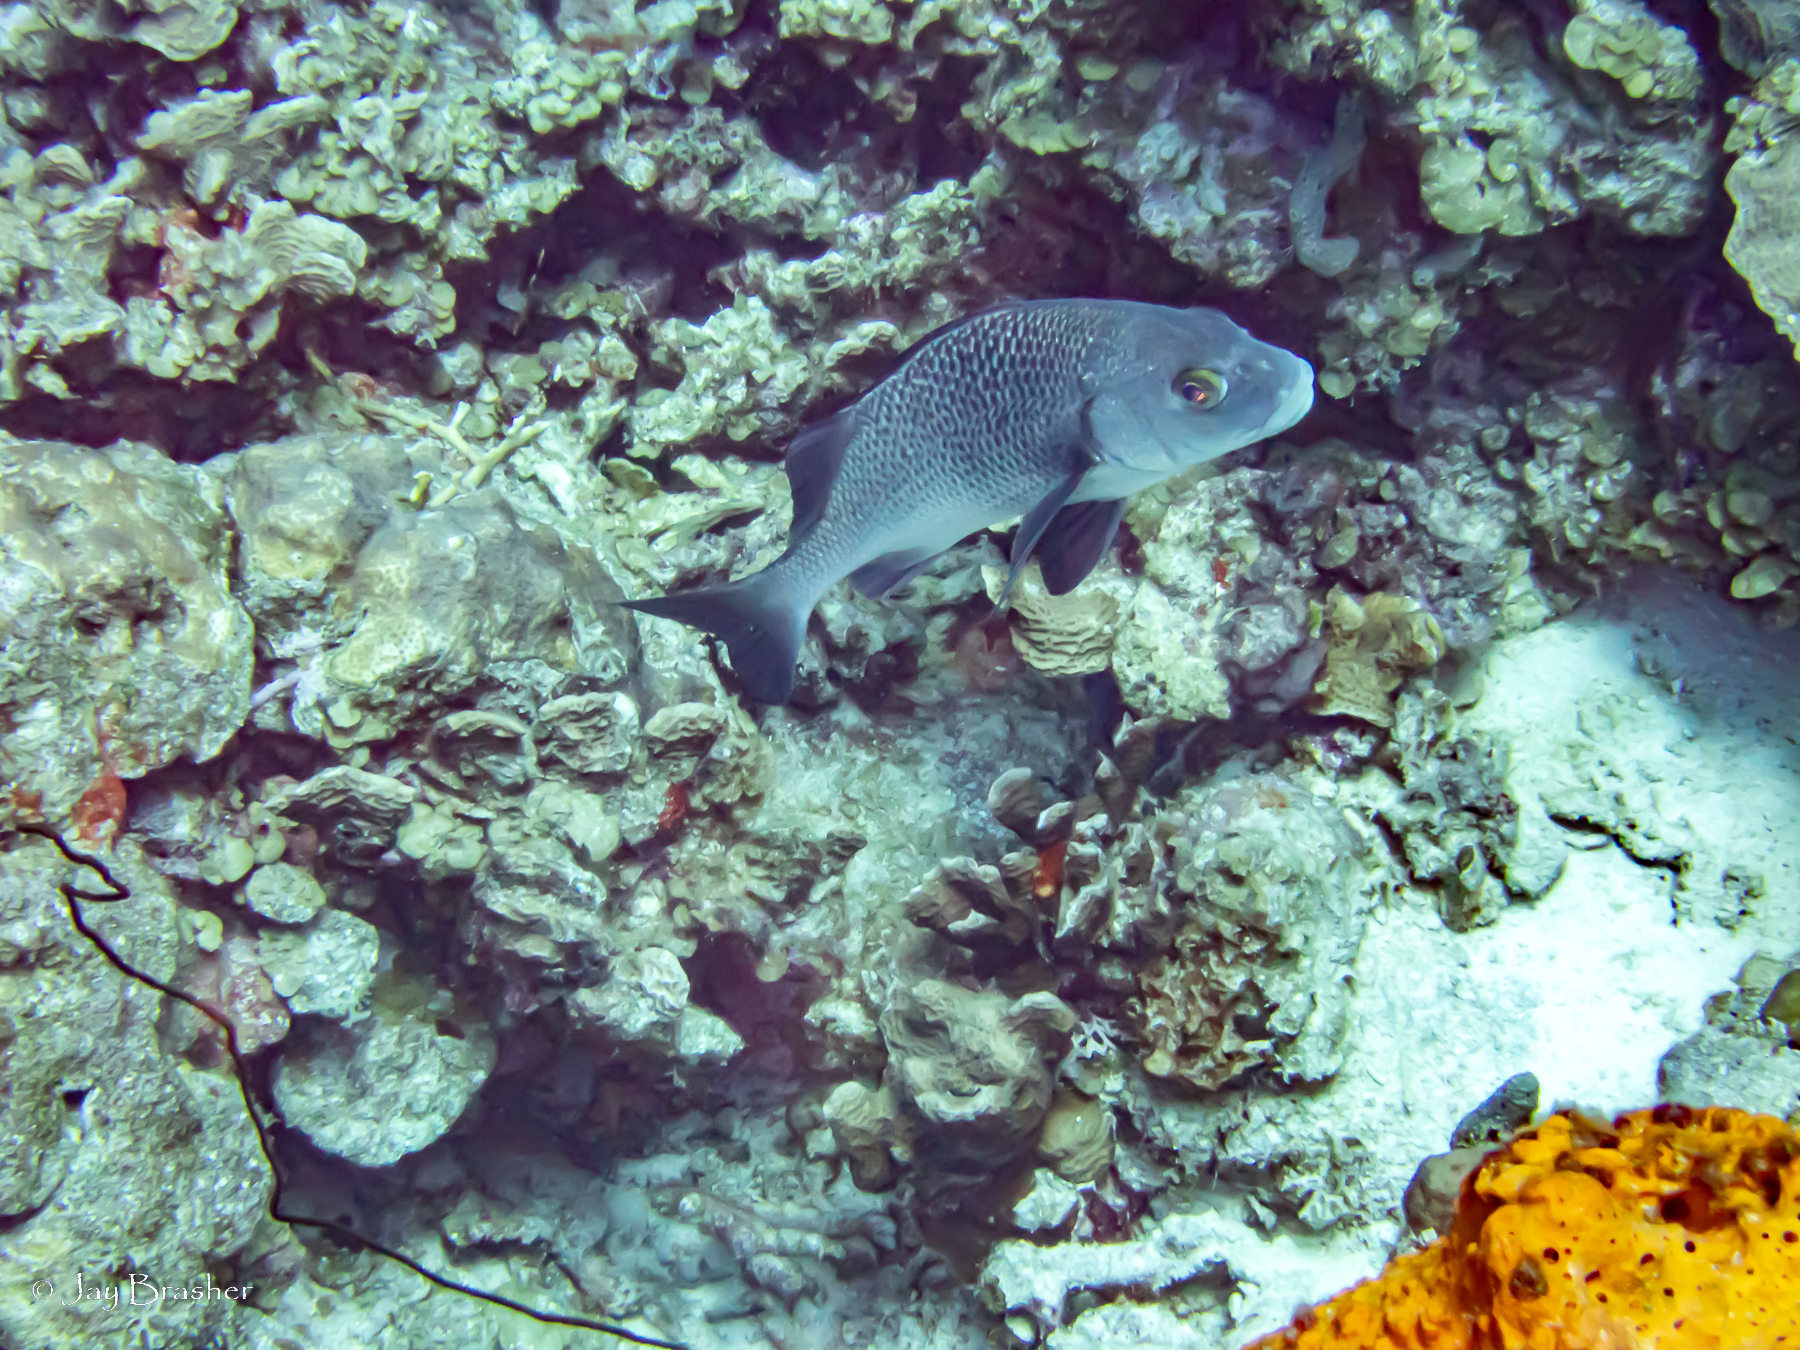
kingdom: Animalia
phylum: Chordata
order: Perciformes
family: Haemulidae
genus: Anisotremus
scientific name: Anisotremus surinamensis
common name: Black margate
